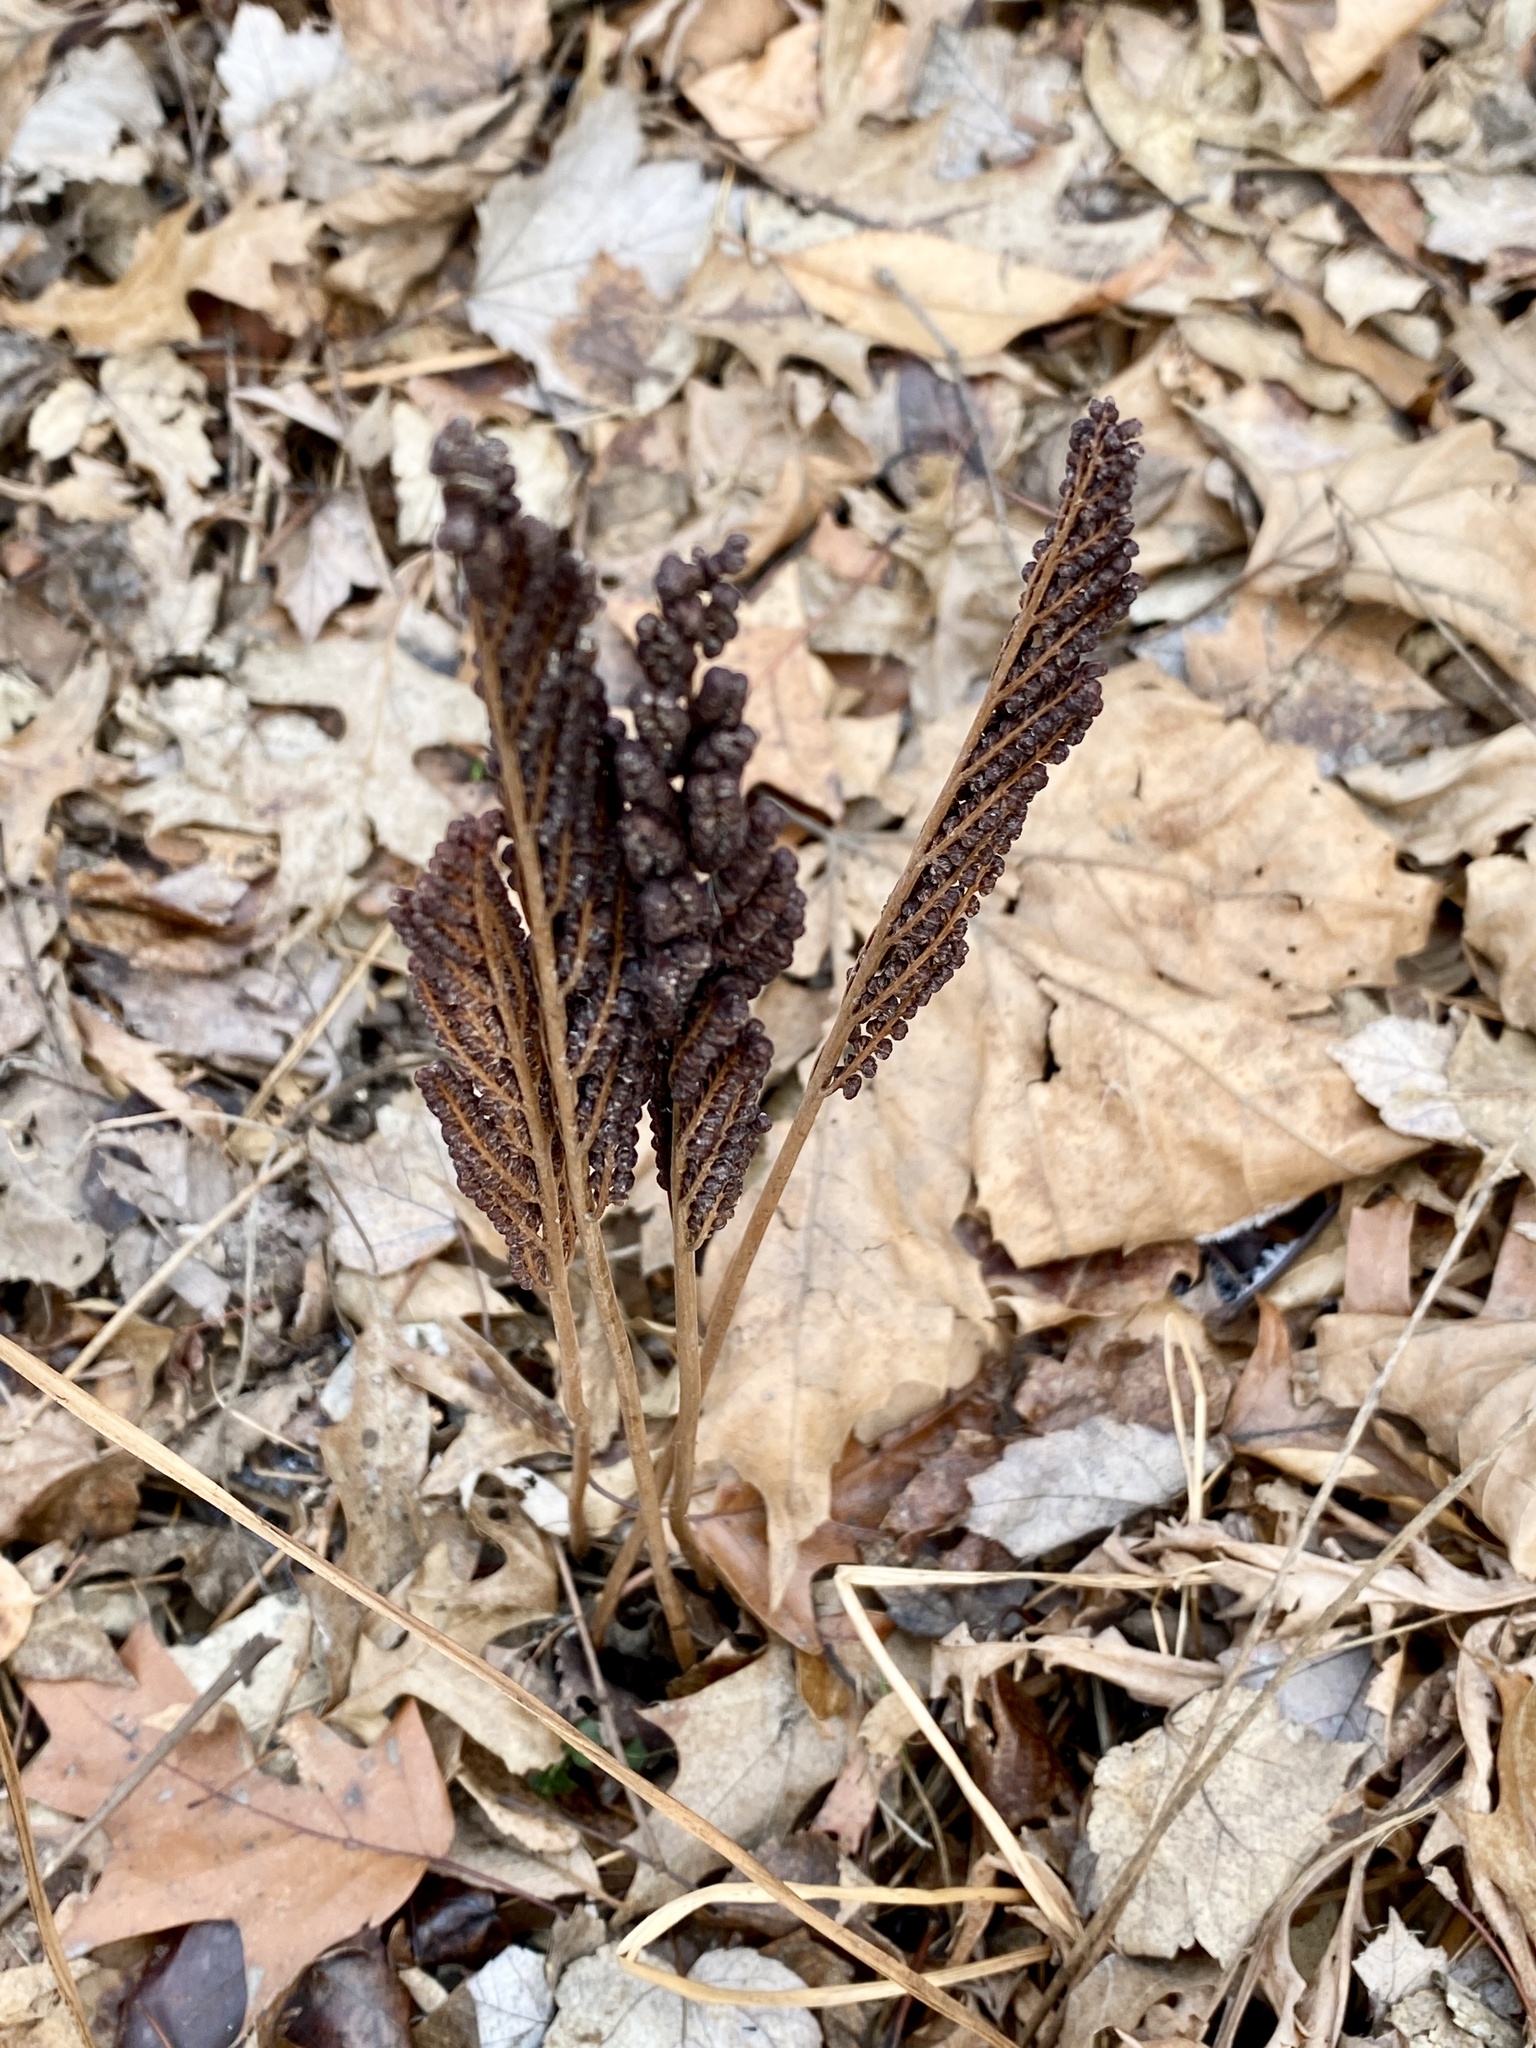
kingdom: Plantae
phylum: Tracheophyta
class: Polypodiopsida
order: Polypodiales
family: Onocleaceae
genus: Onoclea
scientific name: Onoclea sensibilis
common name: Sensitive fern
